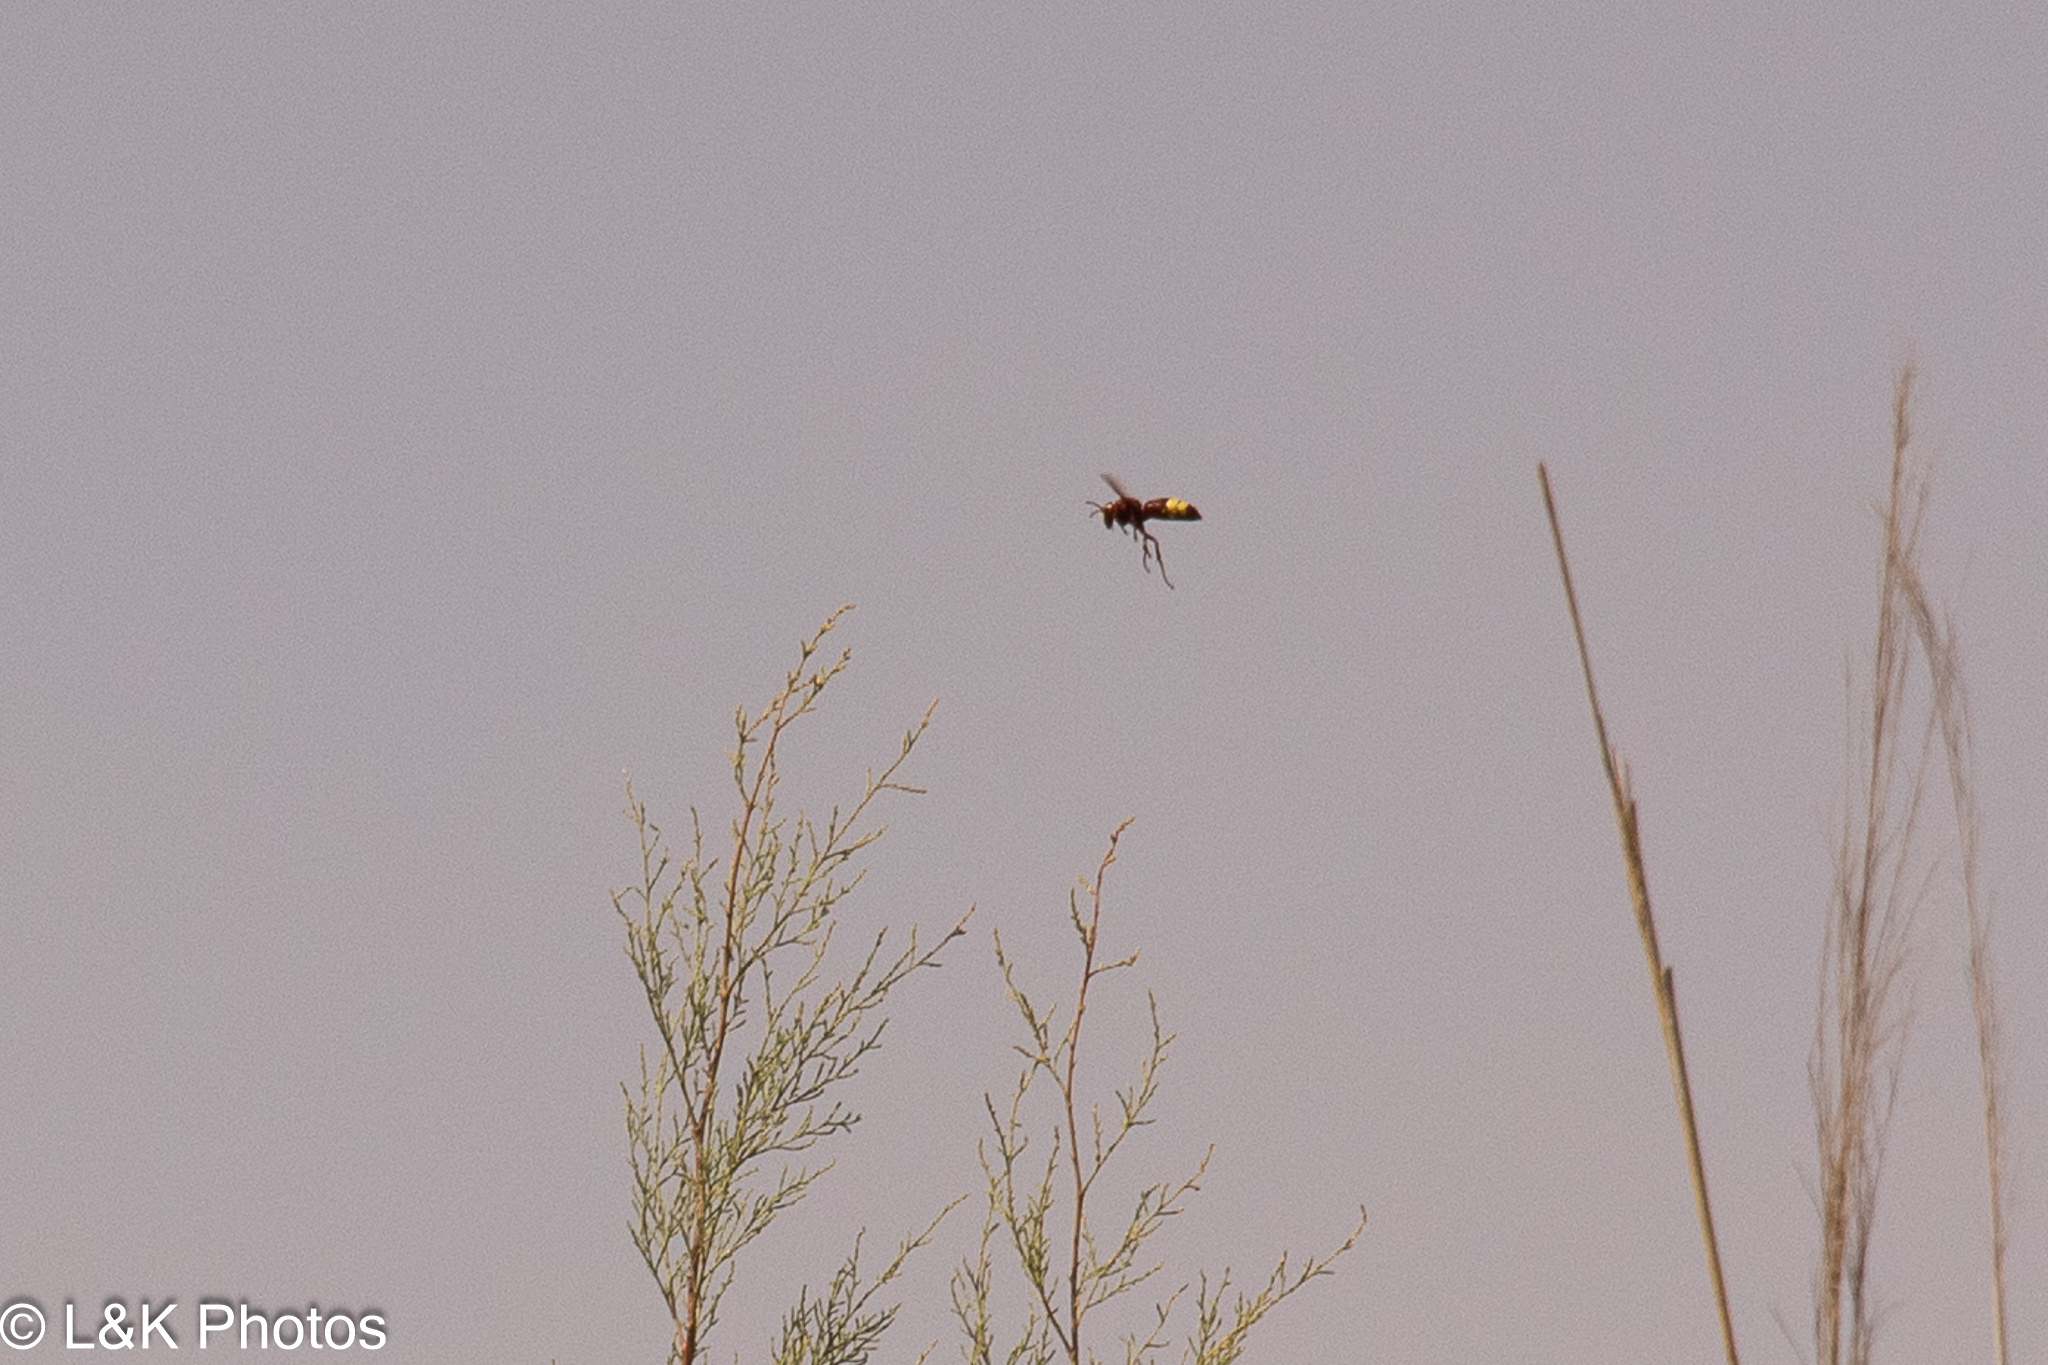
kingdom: Animalia
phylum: Arthropoda
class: Insecta
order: Hymenoptera
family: Vespidae
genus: Vespa
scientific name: Vespa orientalis
